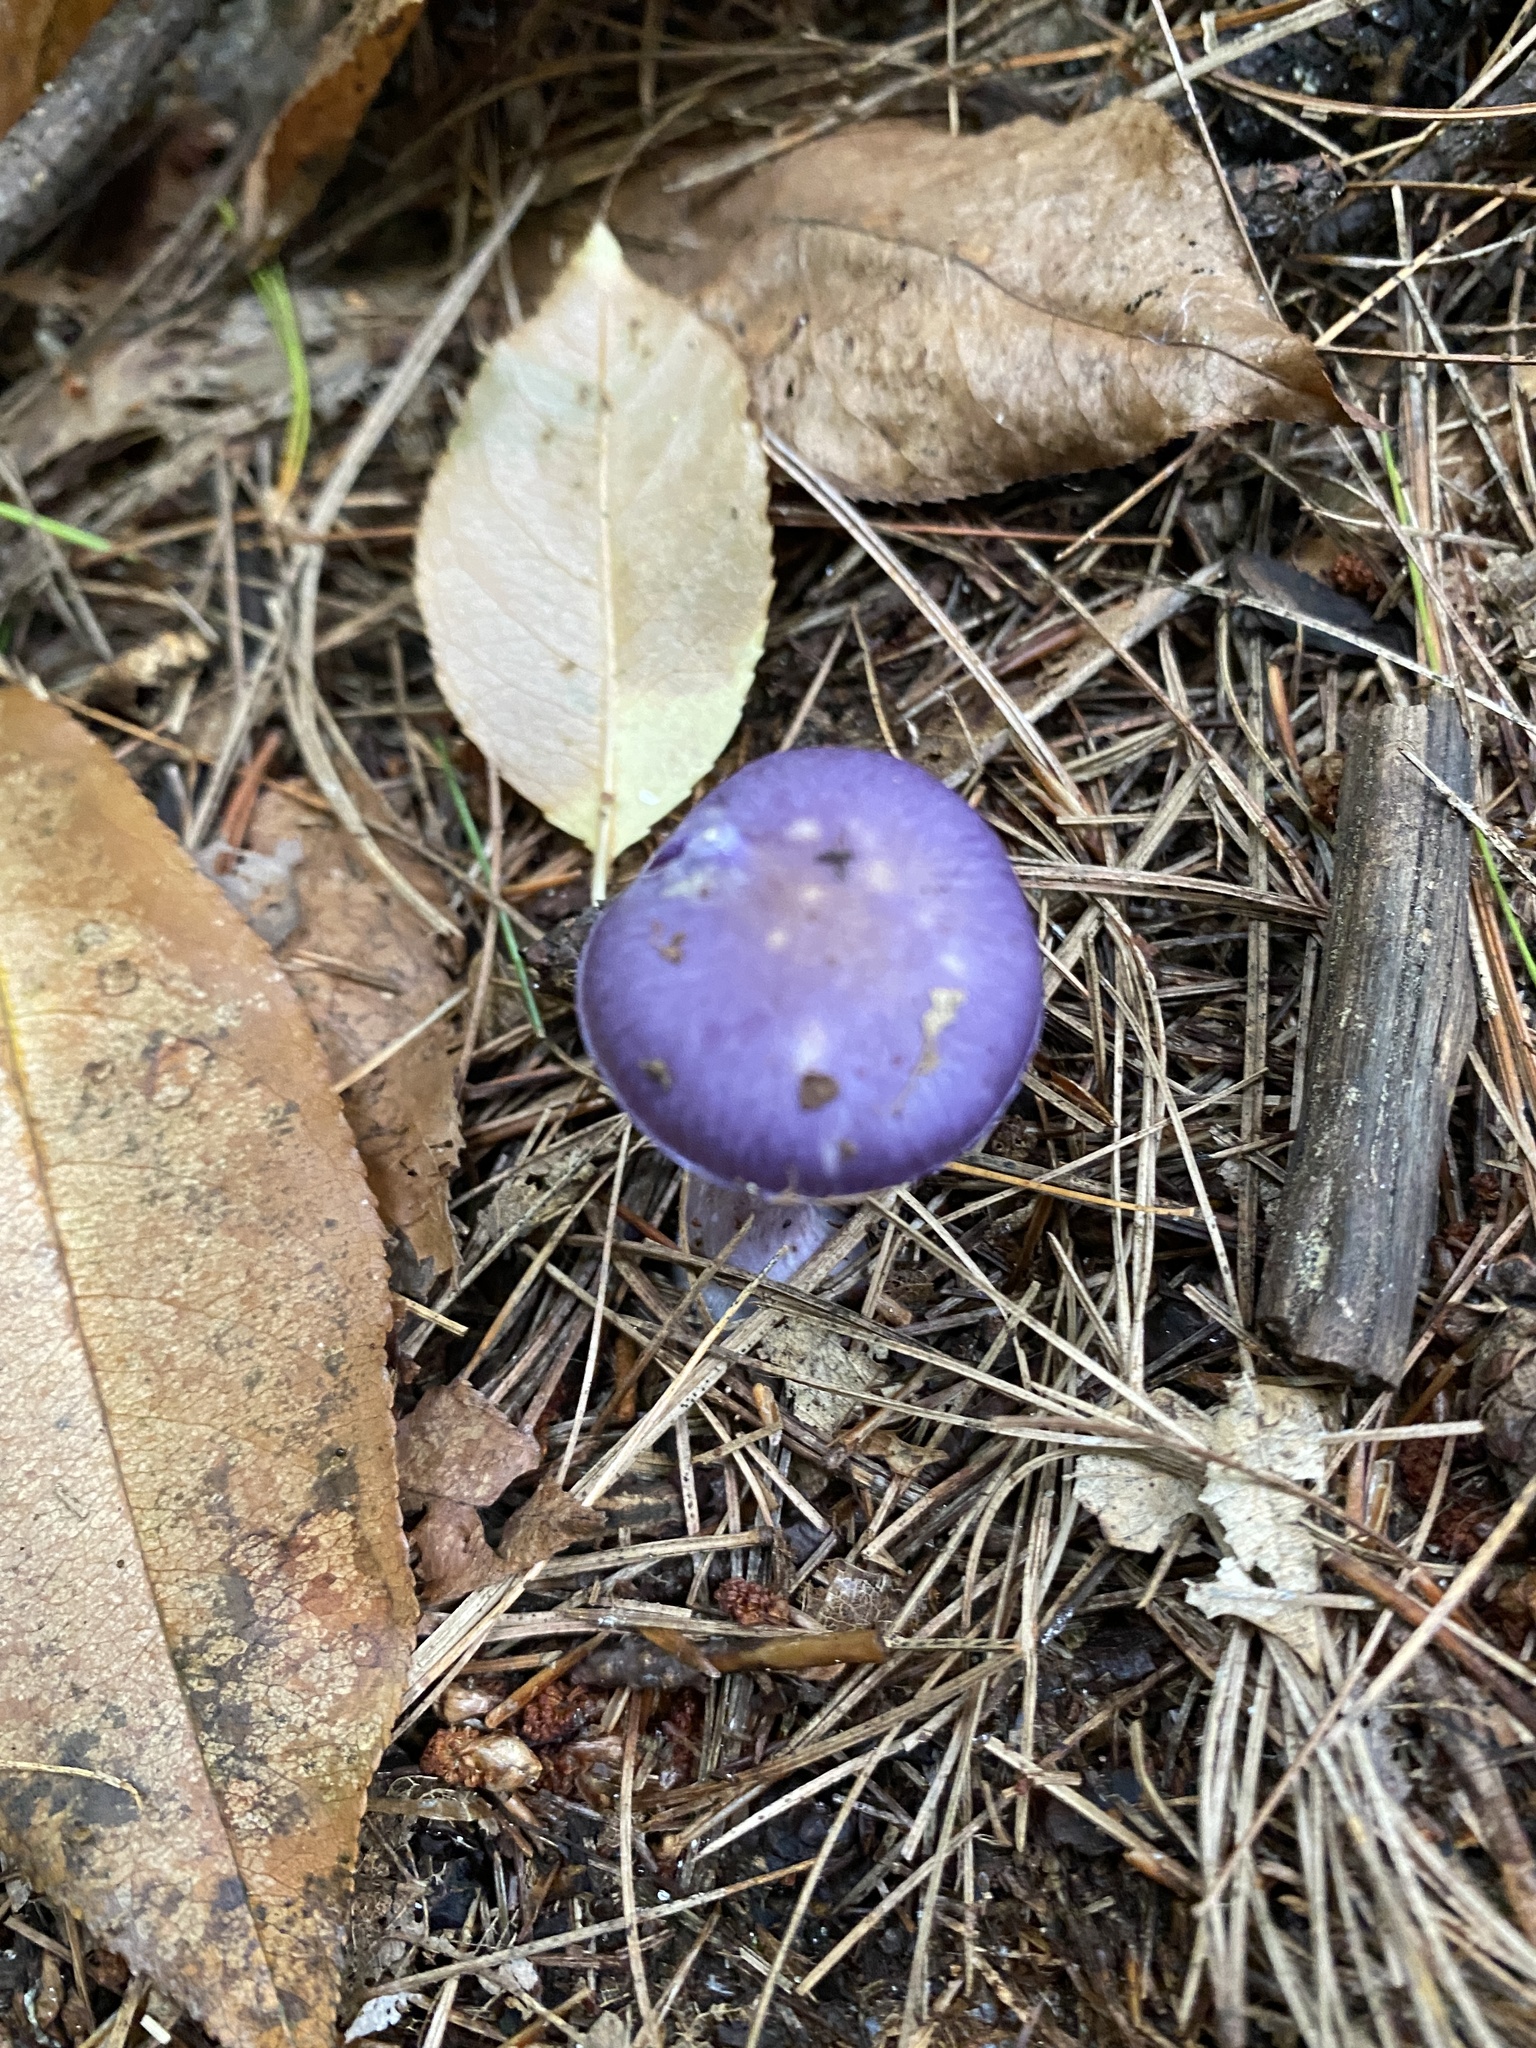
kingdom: Fungi
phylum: Basidiomycota
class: Agaricomycetes
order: Agaricales
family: Cortinariaceae
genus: Cortinarius
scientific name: Cortinarius iodes
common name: Viscid violet cort
